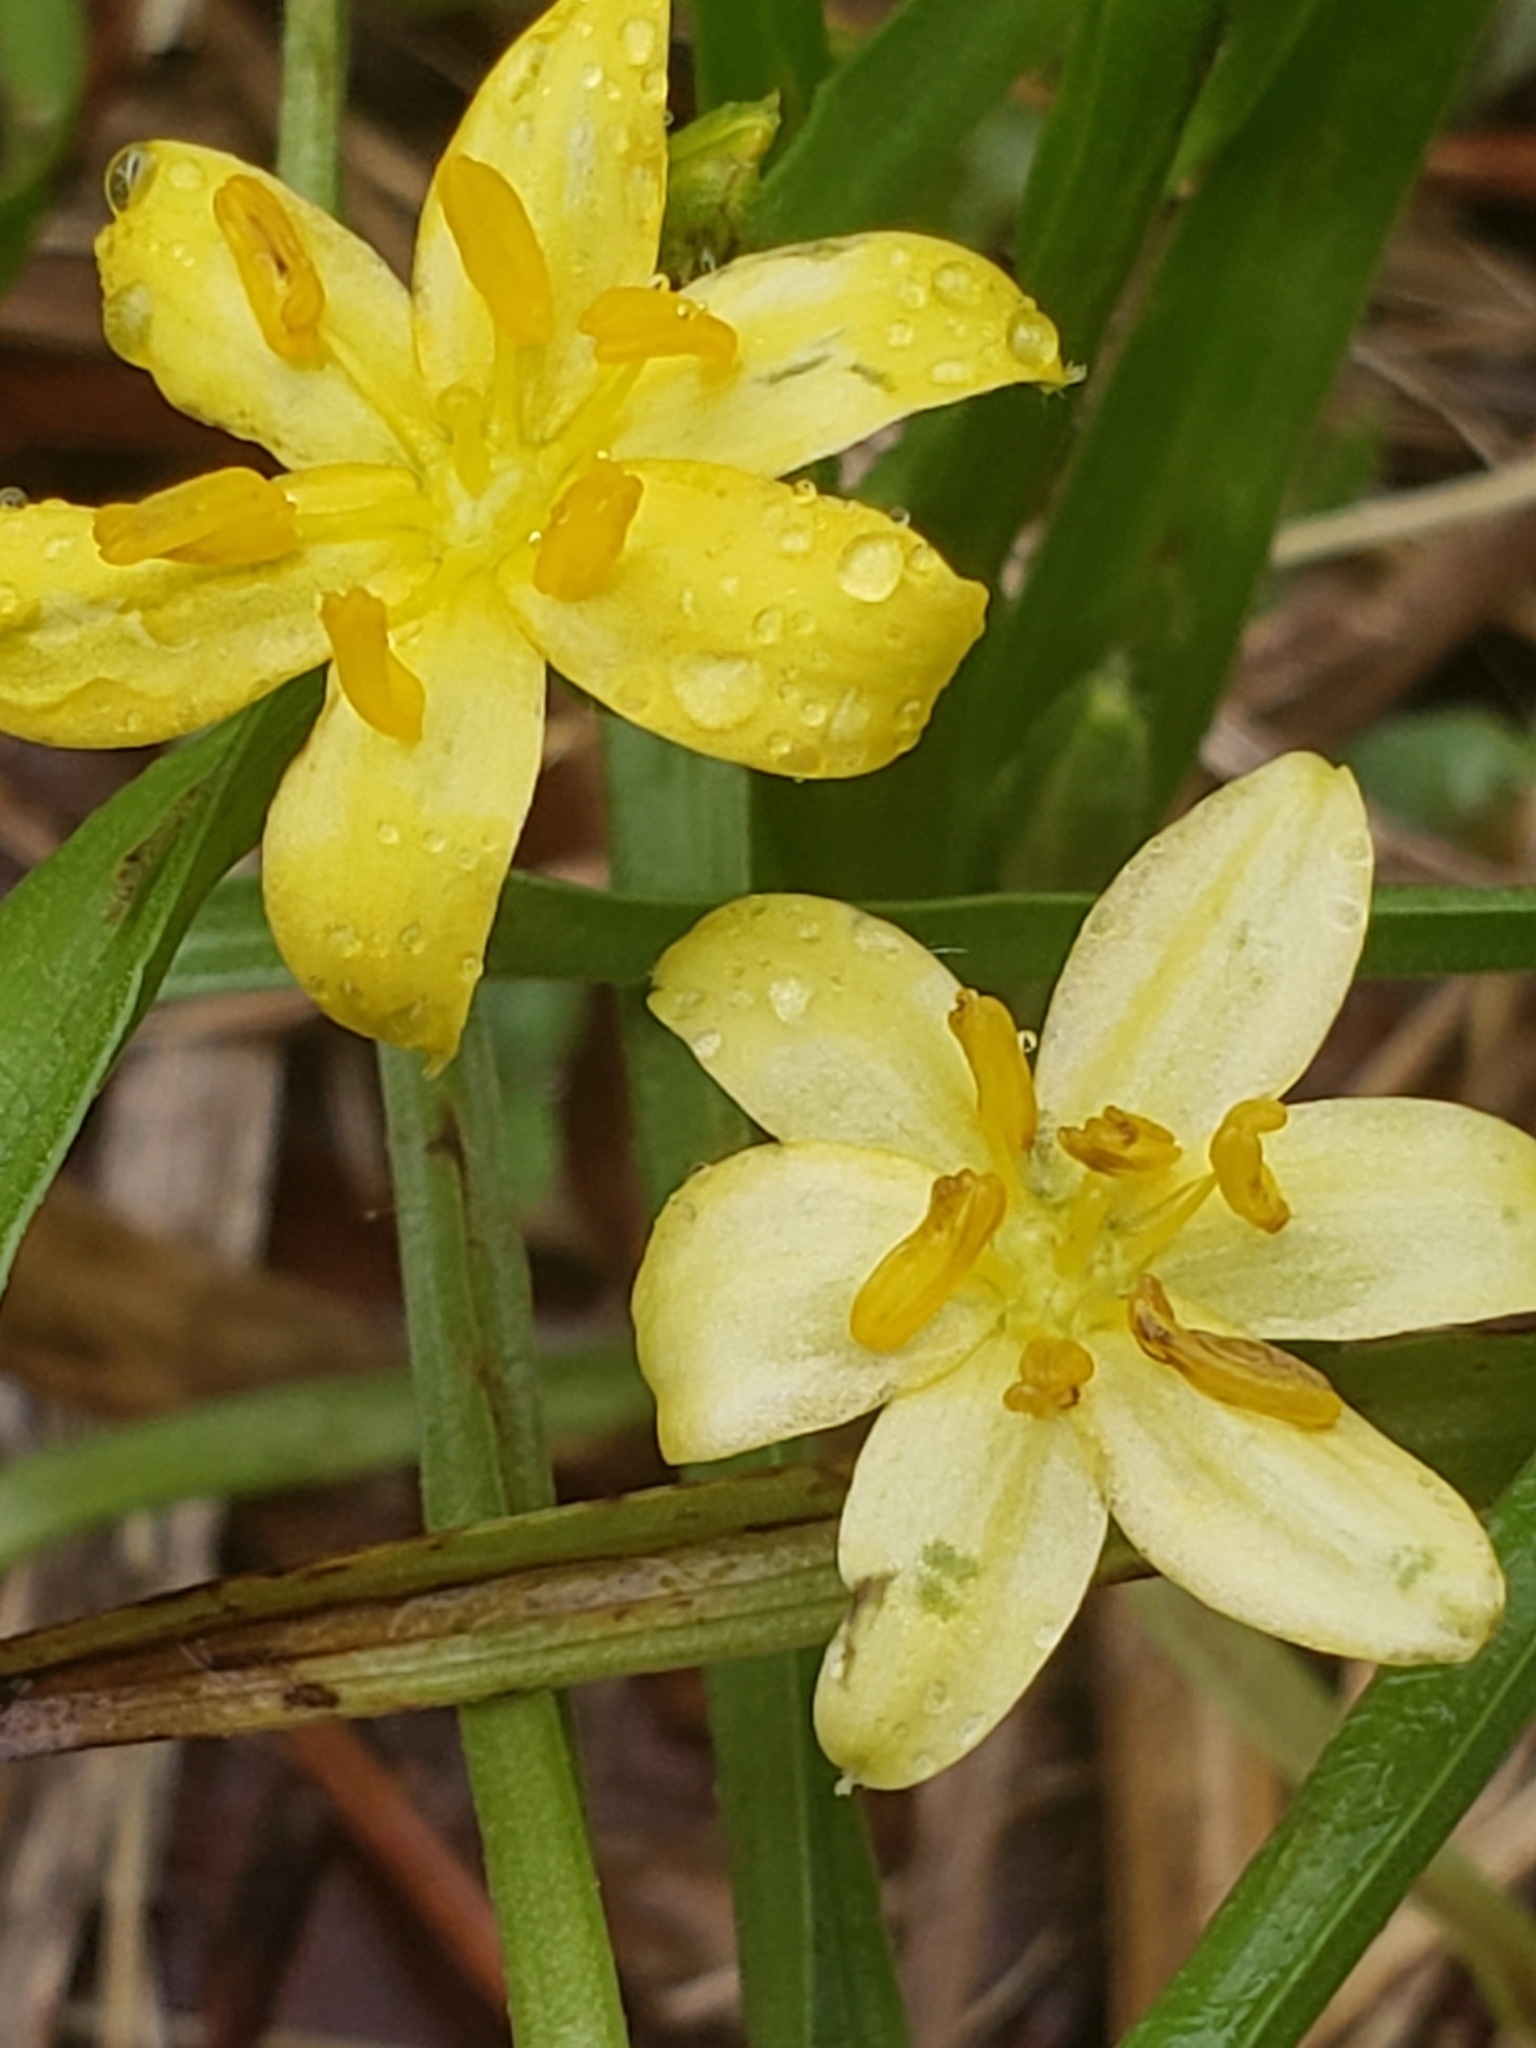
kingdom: Plantae
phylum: Tracheophyta
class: Liliopsida
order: Asparagales
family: Hypoxidaceae
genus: Hypoxis
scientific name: Hypoxis hirsuta
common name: Common goldstar
